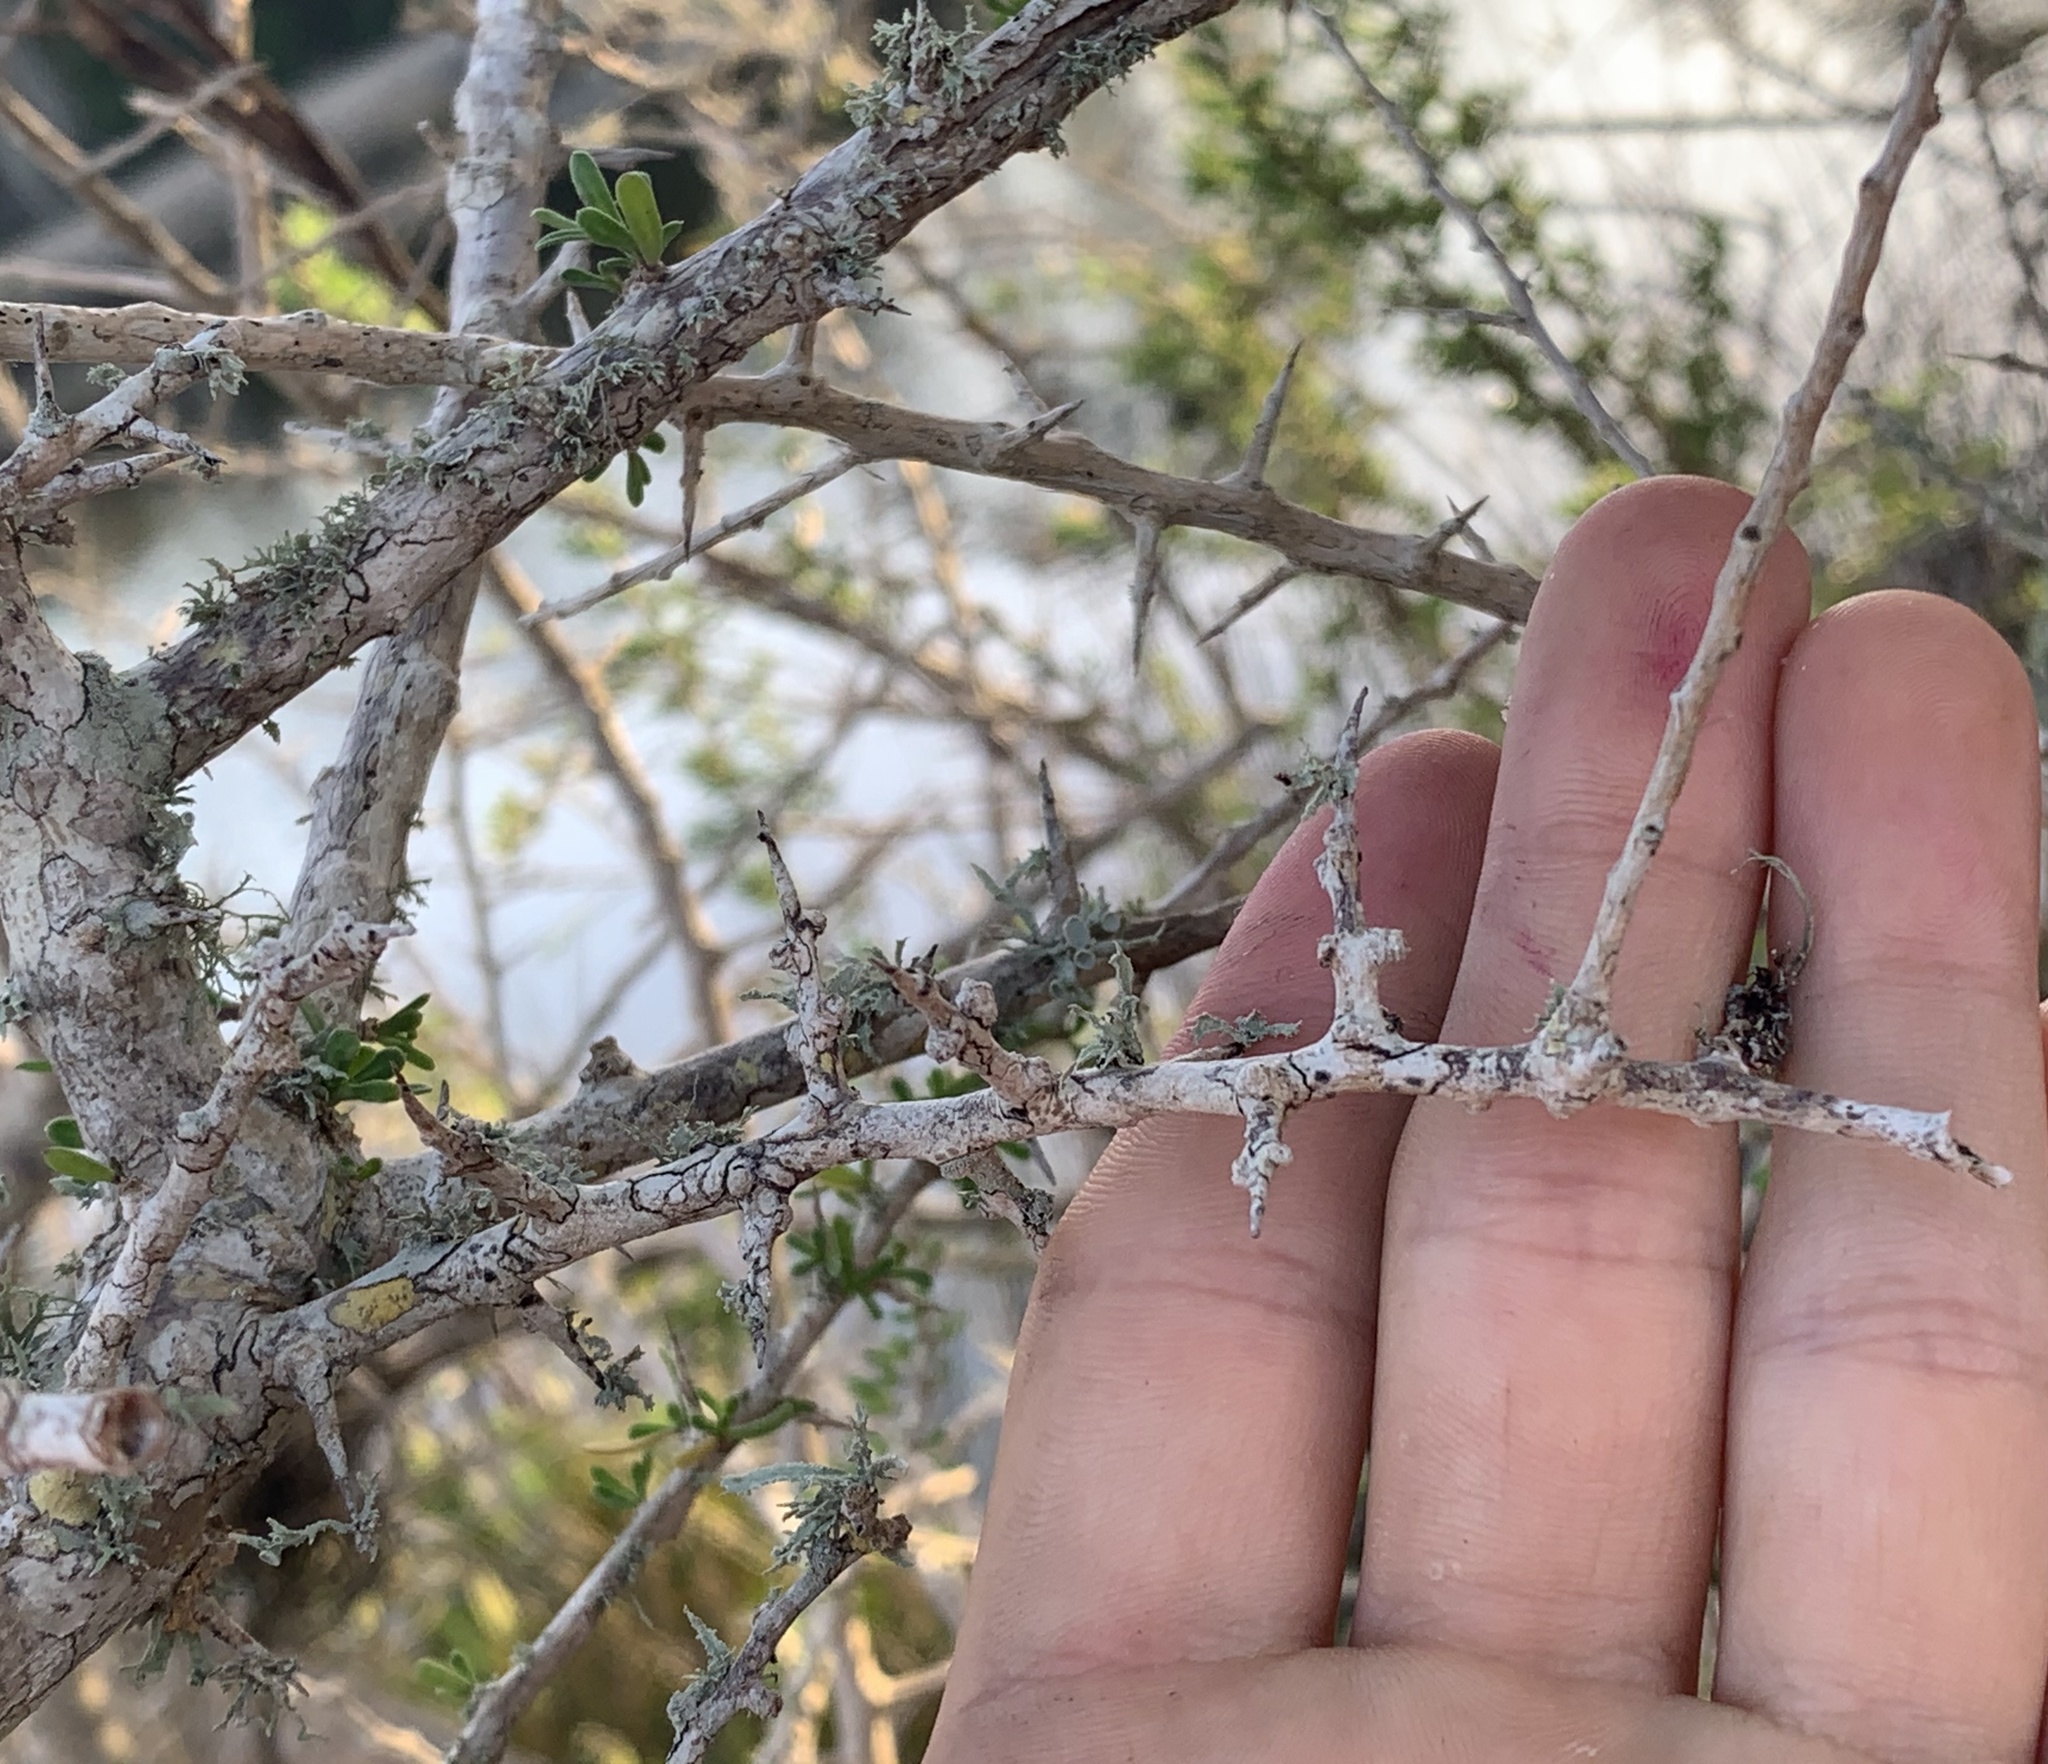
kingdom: Plantae
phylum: Tracheophyta
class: Magnoliopsida
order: Ericales
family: Sapotaceae
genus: Sideroxylon
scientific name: Sideroxylon celastrinum
